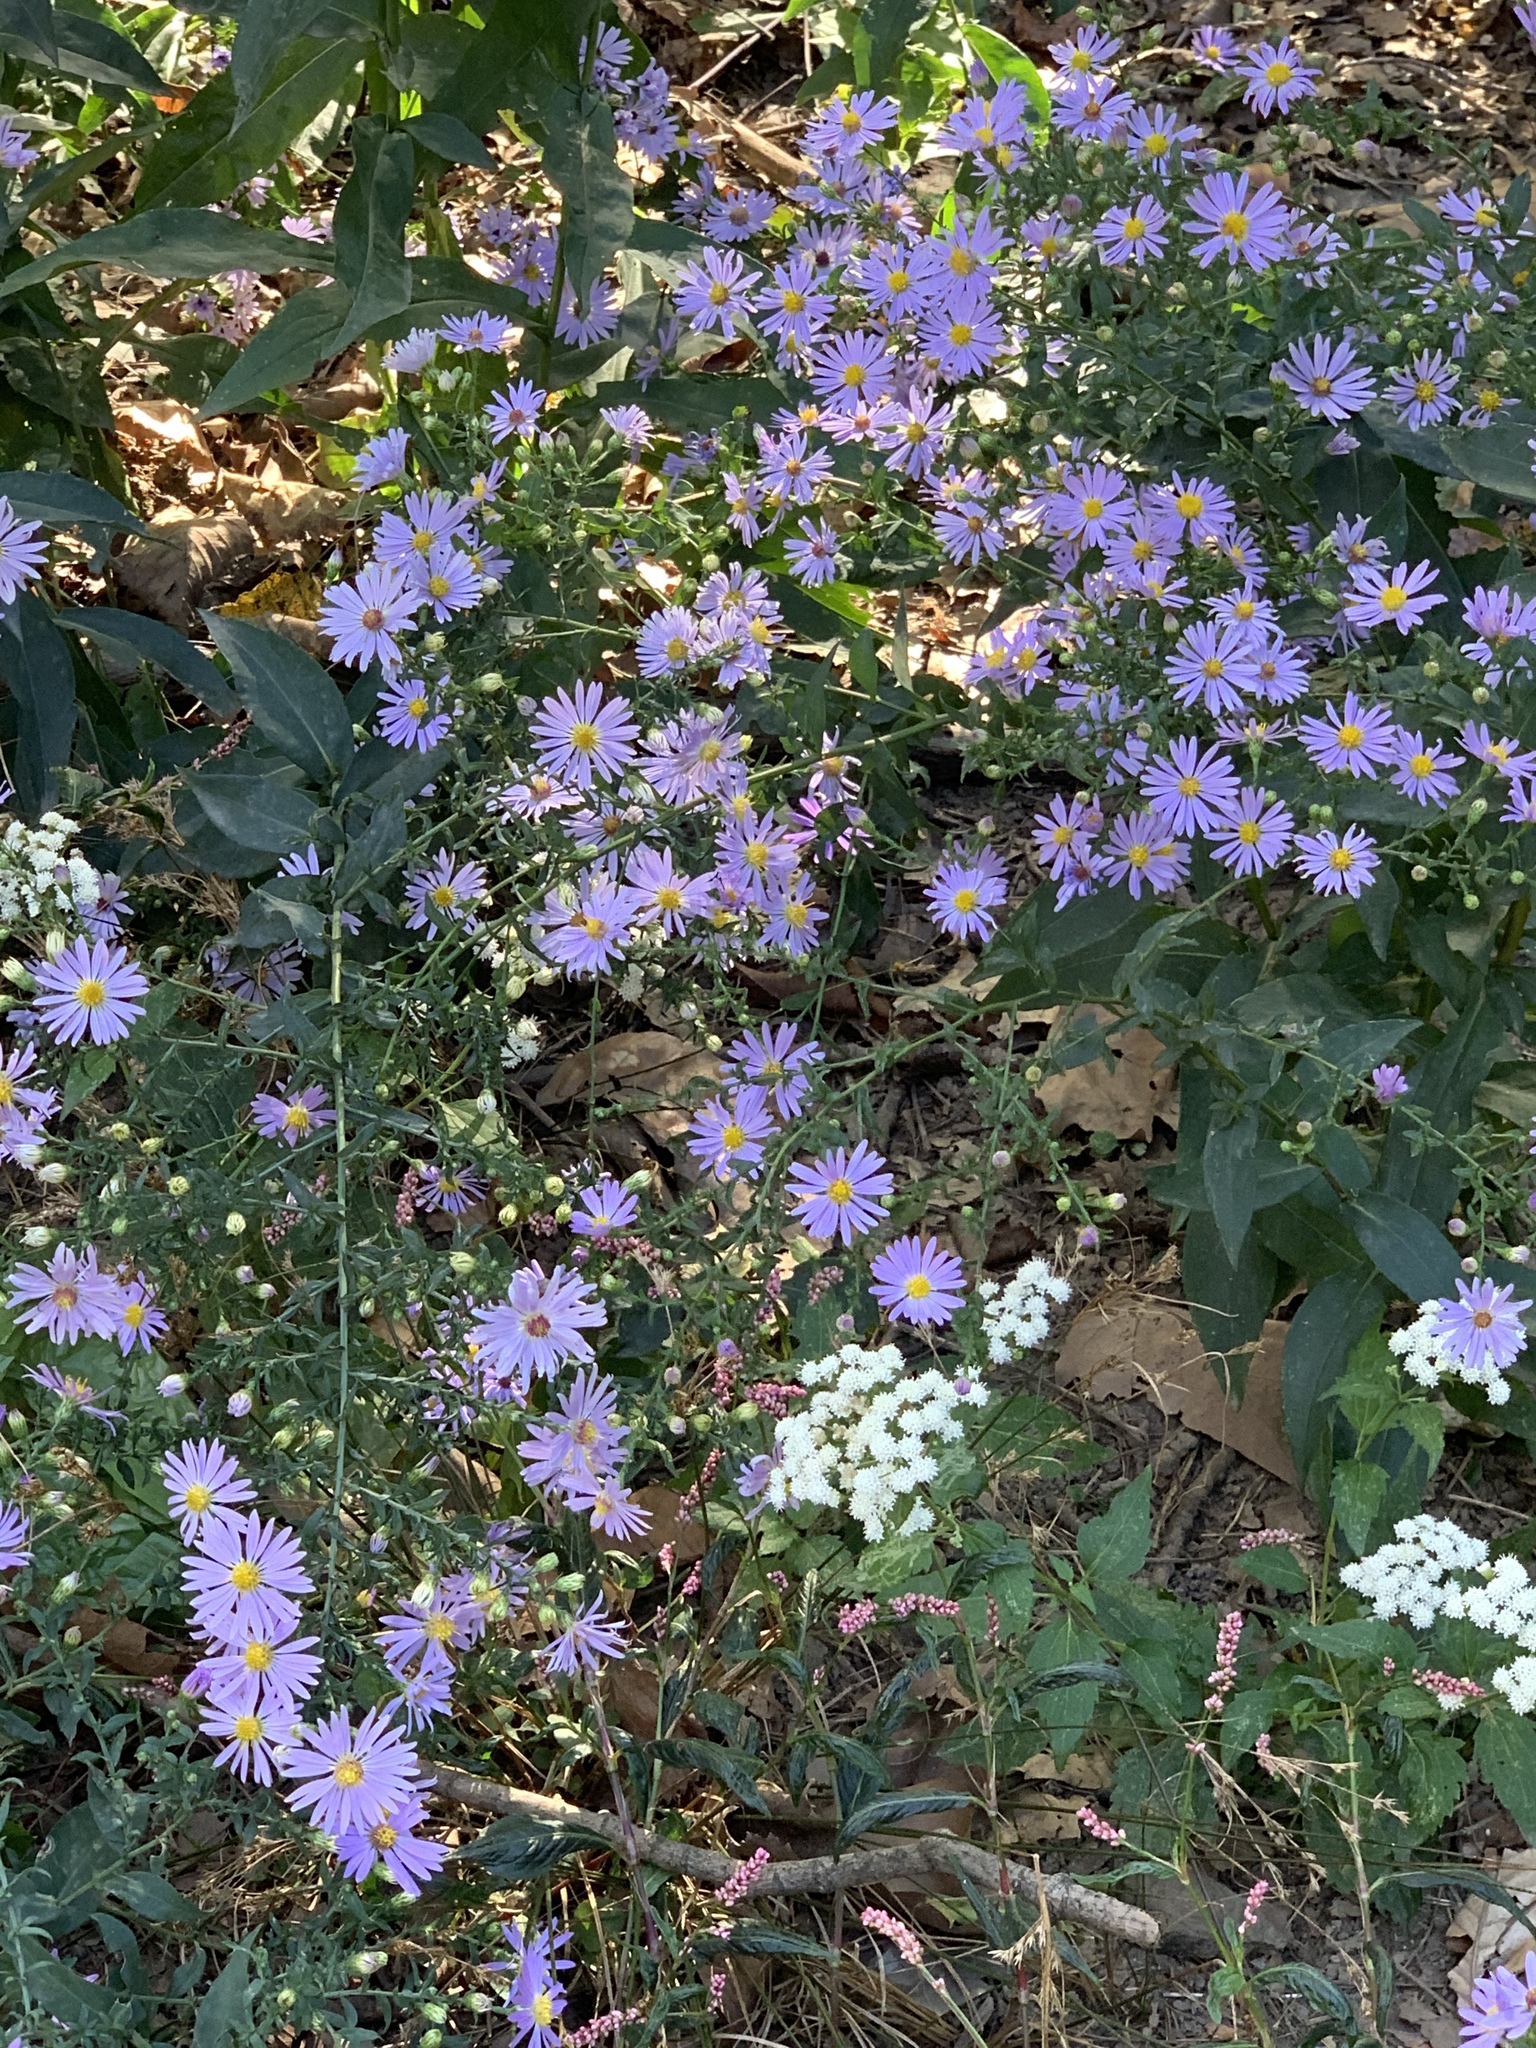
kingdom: Plantae
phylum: Tracheophyta
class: Magnoliopsida
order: Asterales
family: Asteraceae
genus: Symphyotrichum
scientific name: Symphyotrichum laeve
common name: Glaucous aster
